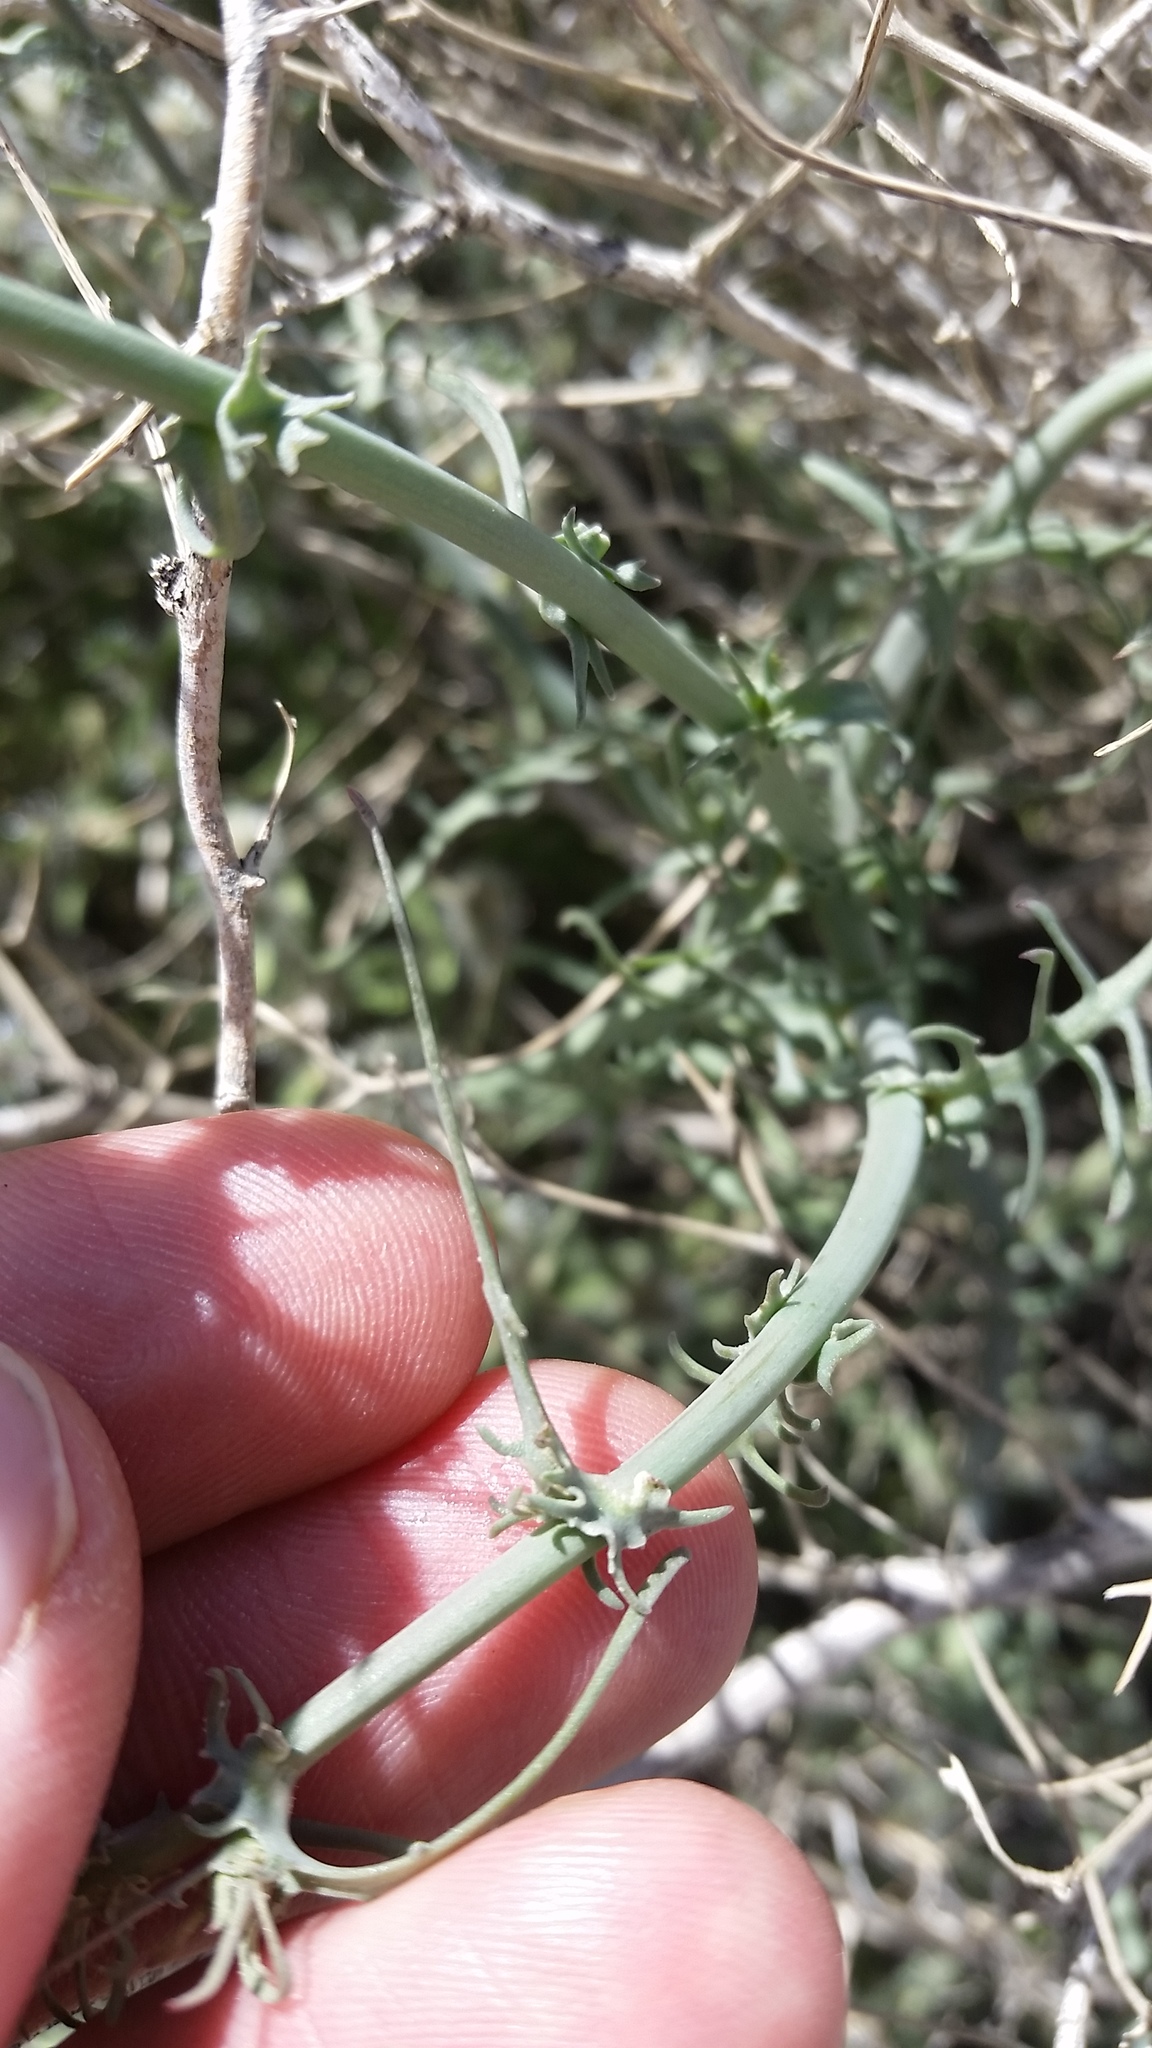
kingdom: Plantae
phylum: Tracheophyta
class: Magnoliopsida
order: Asterales
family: Asteraceae
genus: Rafinesquia
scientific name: Rafinesquia neomexicana
